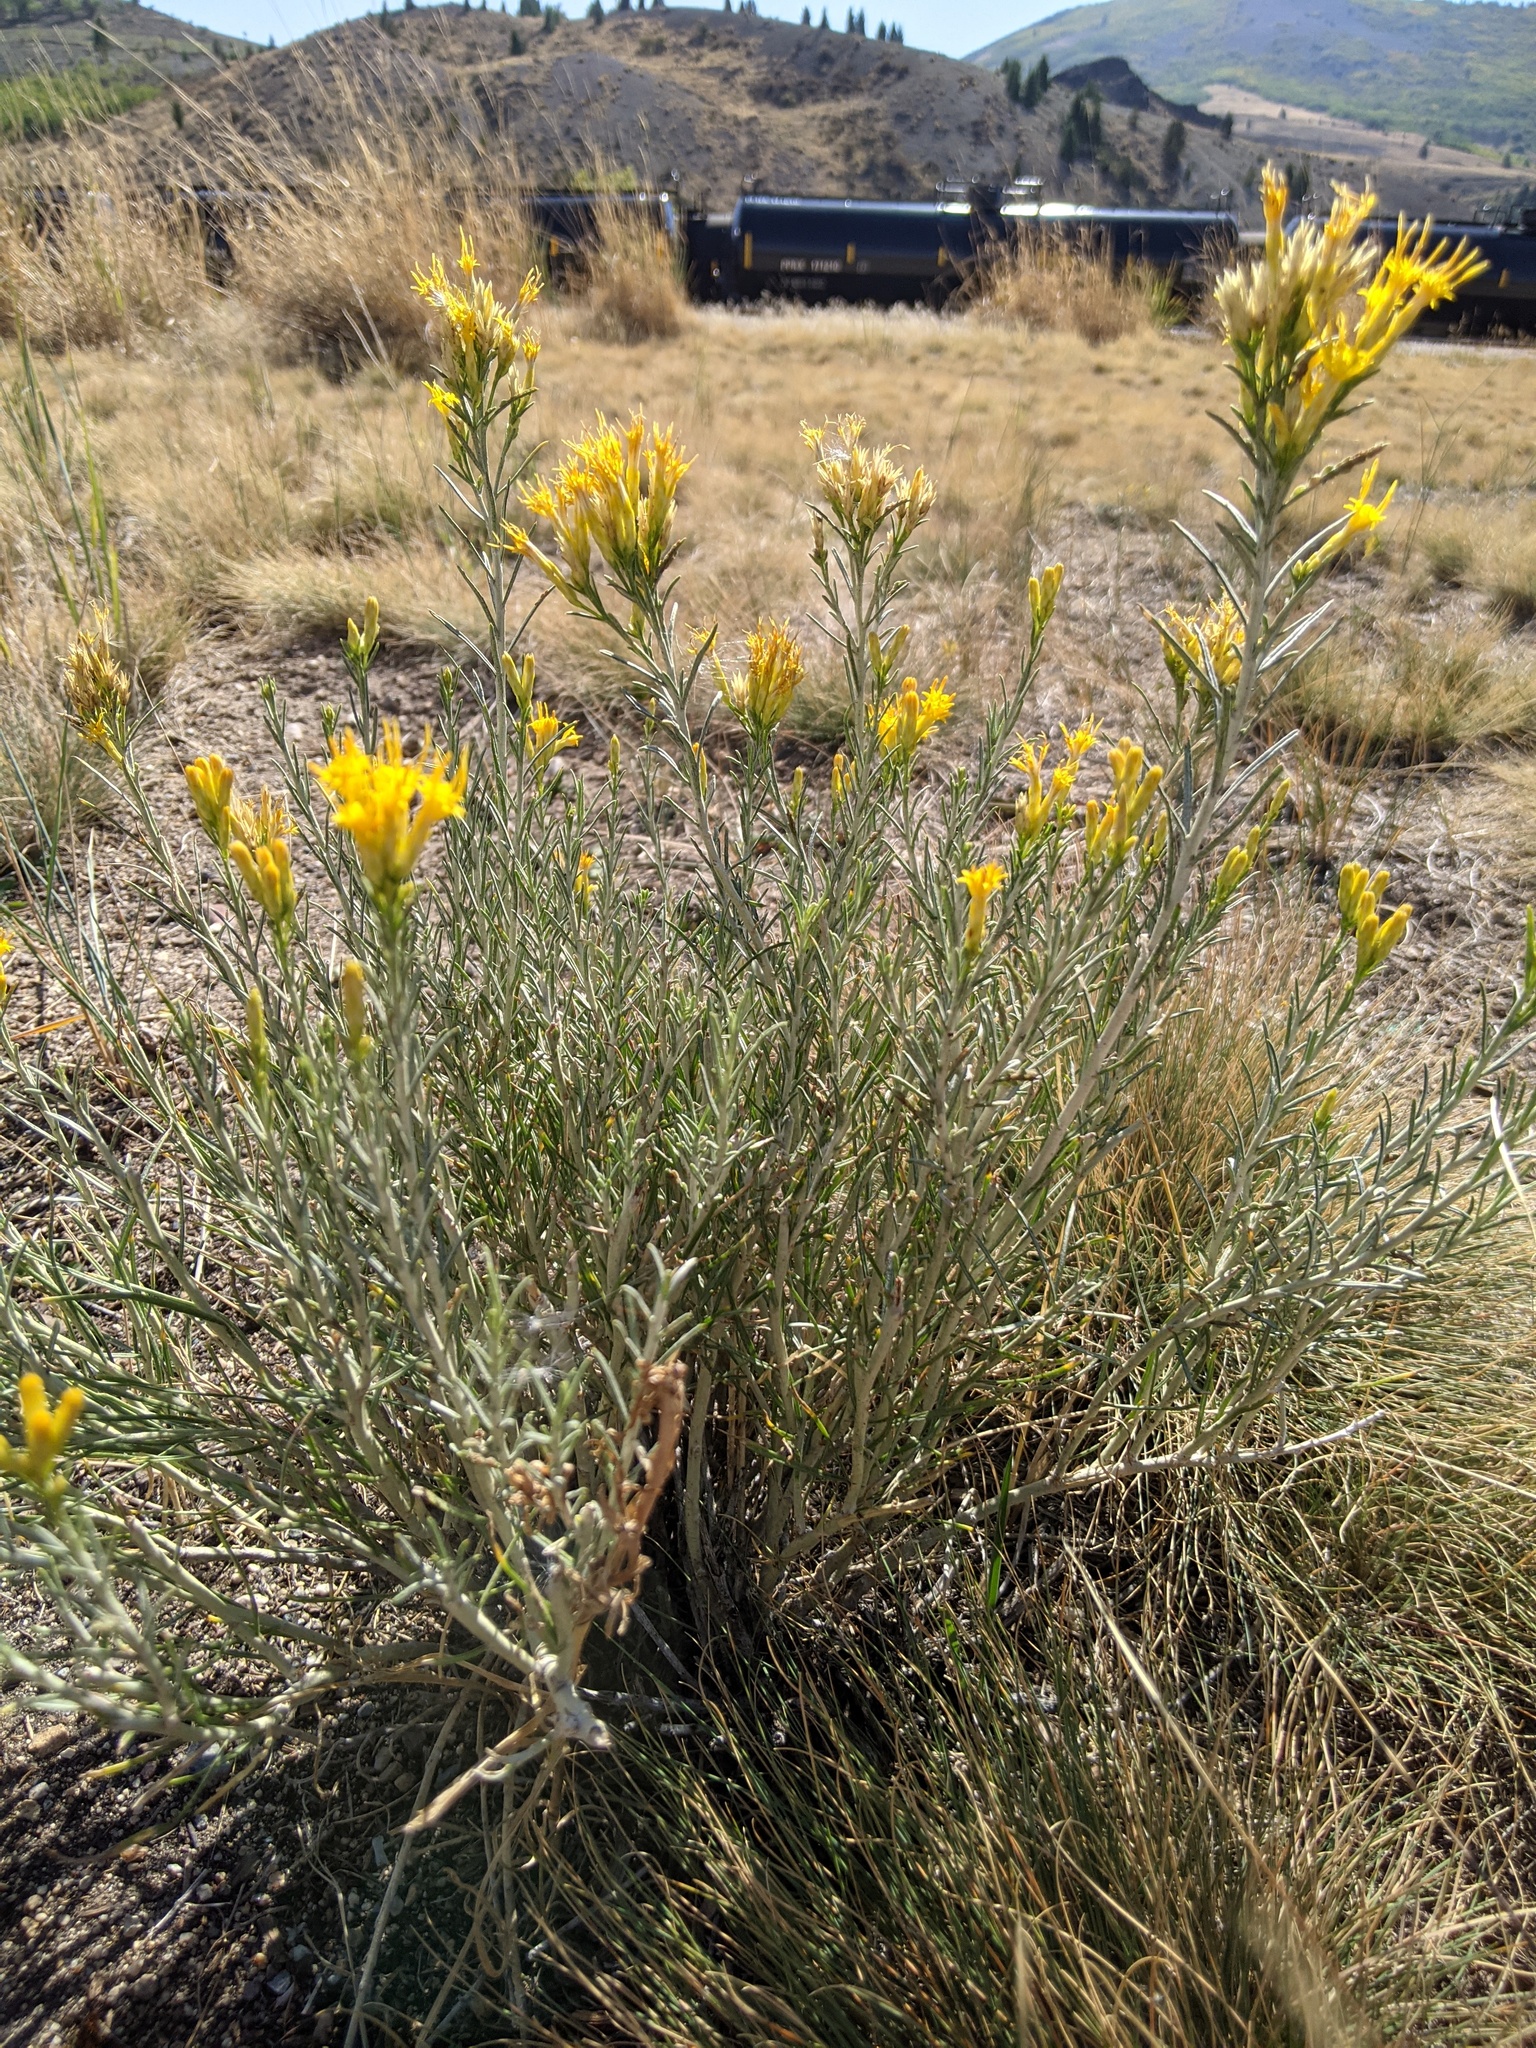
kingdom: Plantae
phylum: Tracheophyta
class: Magnoliopsida
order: Asterales
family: Asteraceae
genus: Ericameria
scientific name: Ericameria nauseosa
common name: Rubber rabbitbrush
